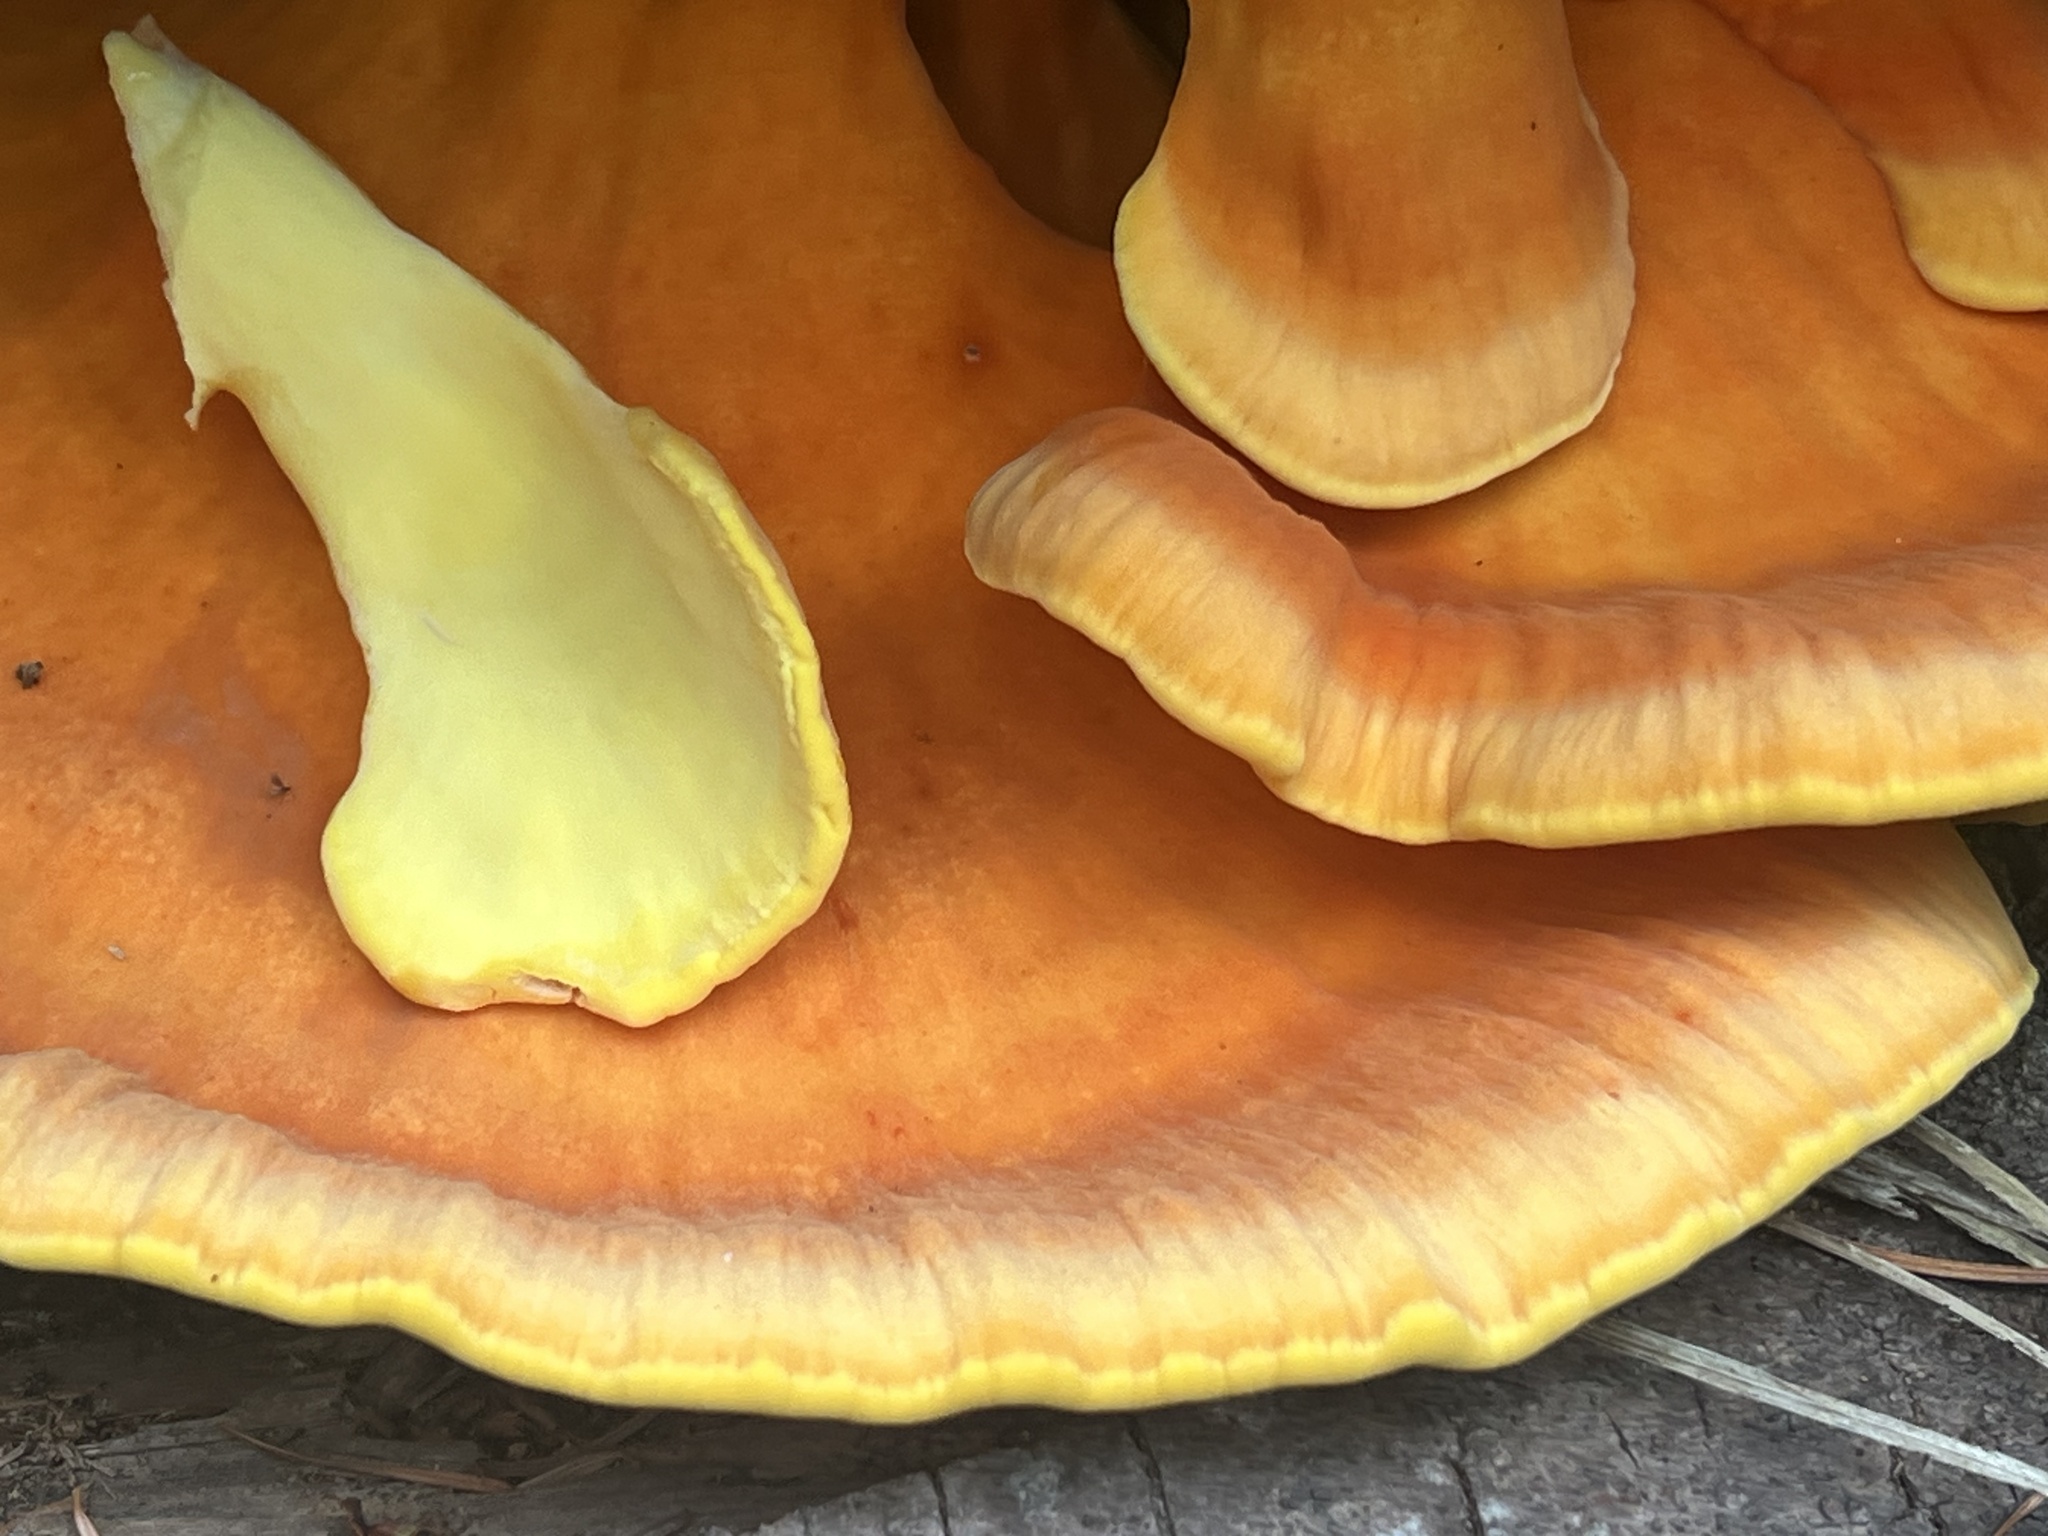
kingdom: Fungi
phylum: Basidiomycota
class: Agaricomycetes
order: Polyporales
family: Laetiporaceae
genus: Laetiporus
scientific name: Laetiporus conifericola
